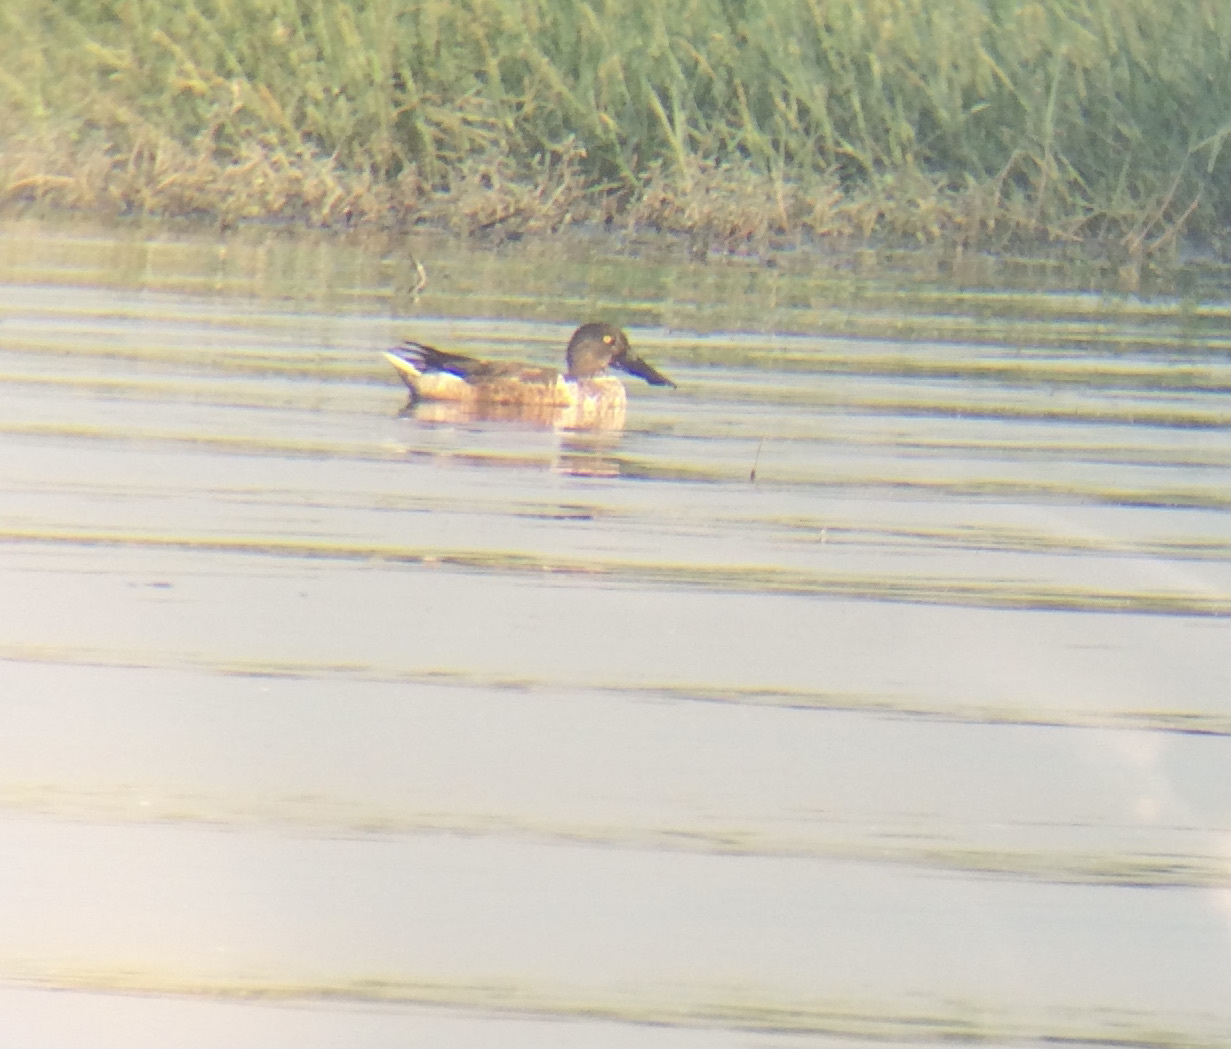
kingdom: Animalia
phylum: Chordata
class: Aves
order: Anseriformes
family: Anatidae
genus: Spatula
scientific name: Spatula clypeata
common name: Northern shoveler
